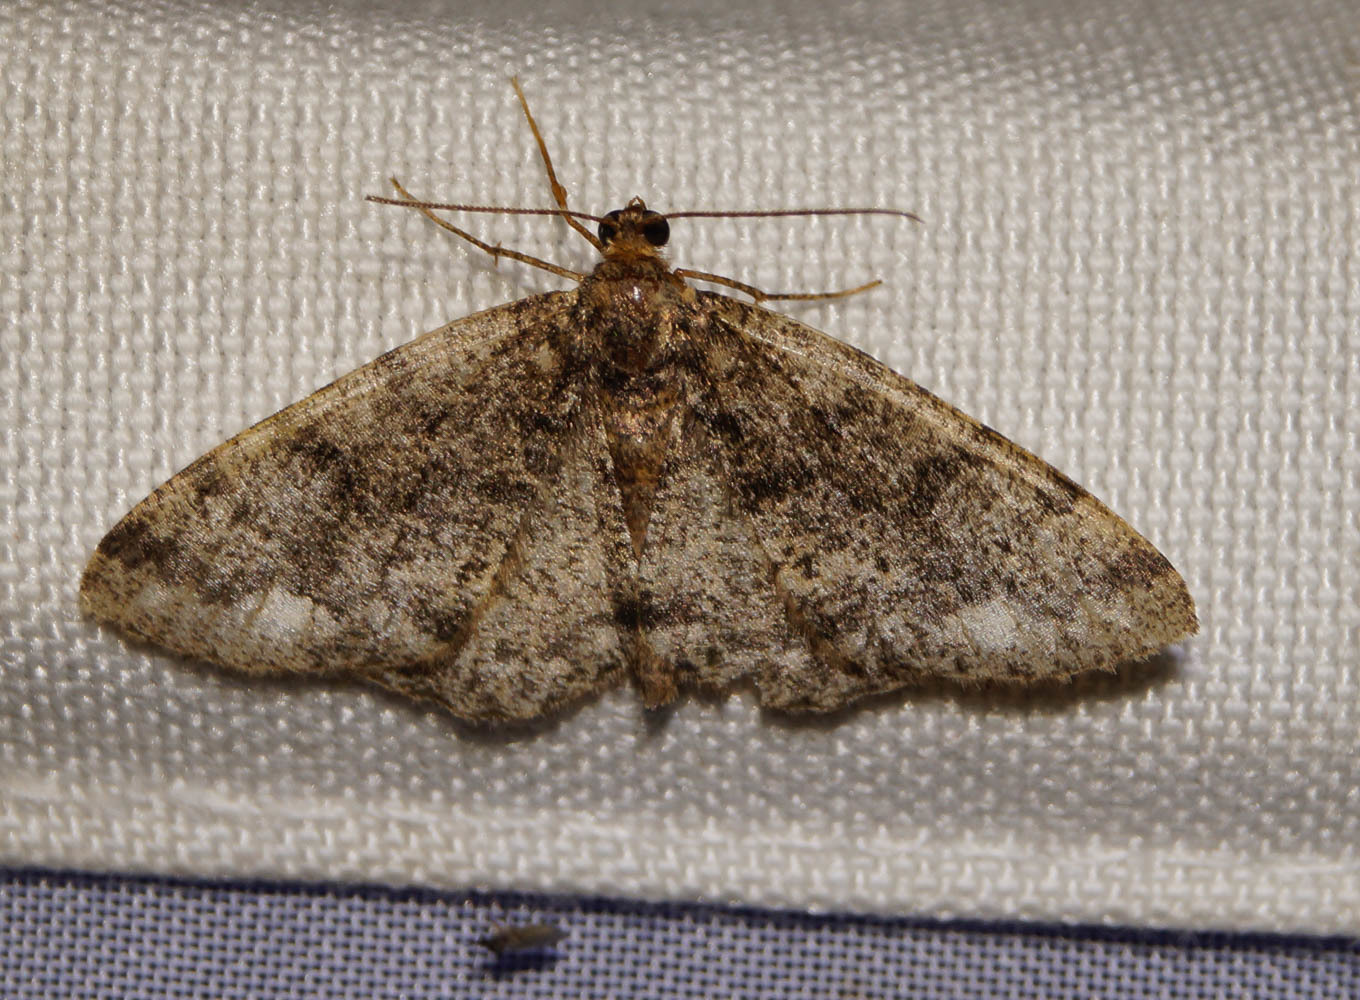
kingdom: Animalia
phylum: Arthropoda
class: Insecta
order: Lepidoptera
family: Geometridae
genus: Parectropis
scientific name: Parectropis similaria
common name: Brindled white-spot
